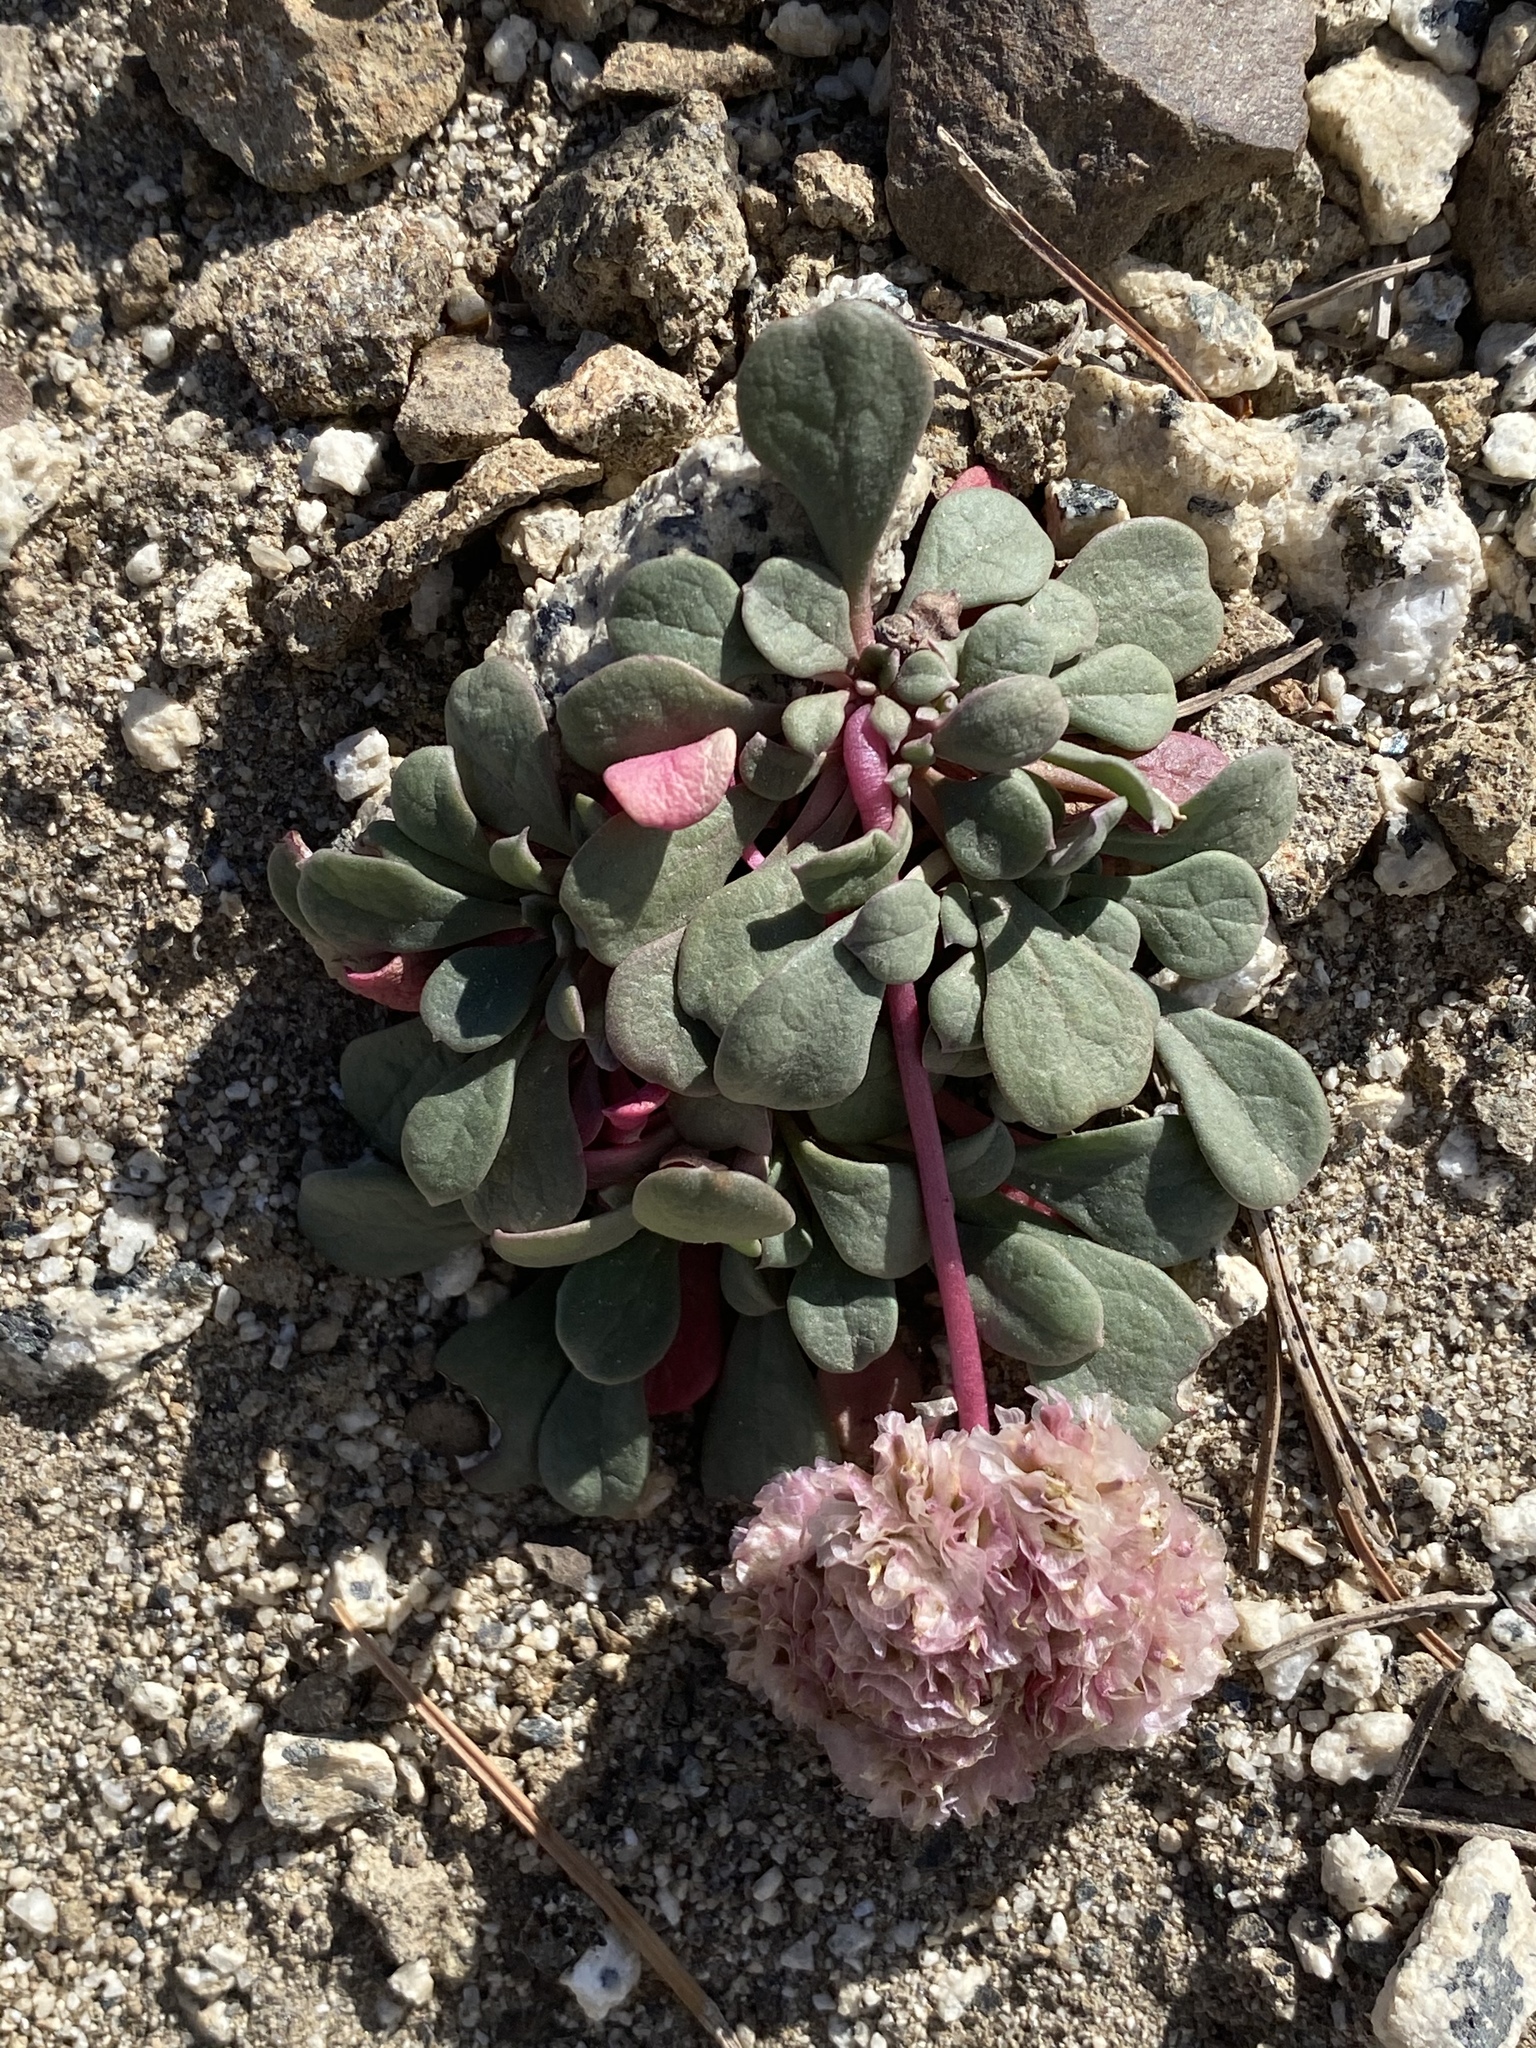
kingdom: Plantae
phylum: Tracheophyta
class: Magnoliopsida
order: Caryophyllales
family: Montiaceae
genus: Calyptridium
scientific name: Calyptridium umbellatum
